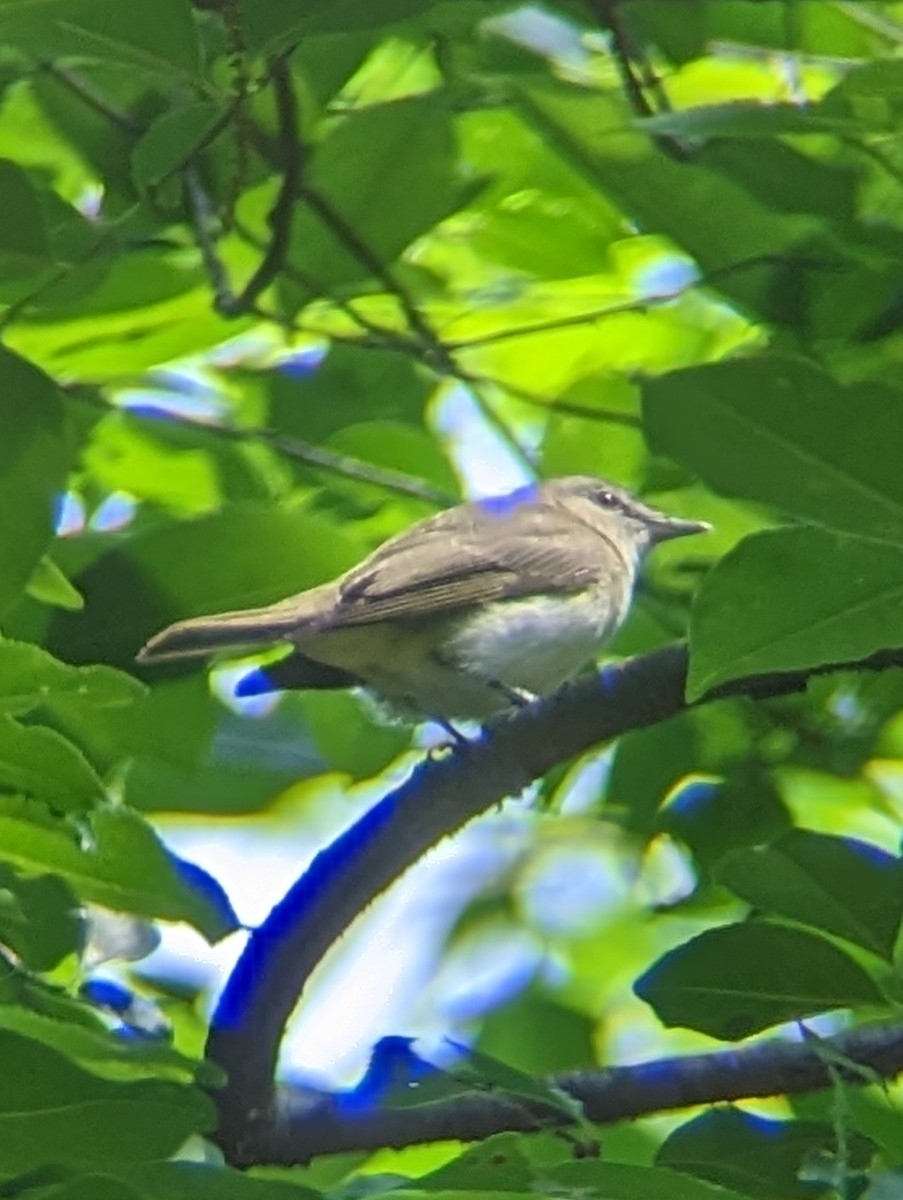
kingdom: Animalia
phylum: Chordata
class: Aves
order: Passeriformes
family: Vireonidae
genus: Vireo
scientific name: Vireo olivaceus
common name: Red-eyed vireo
